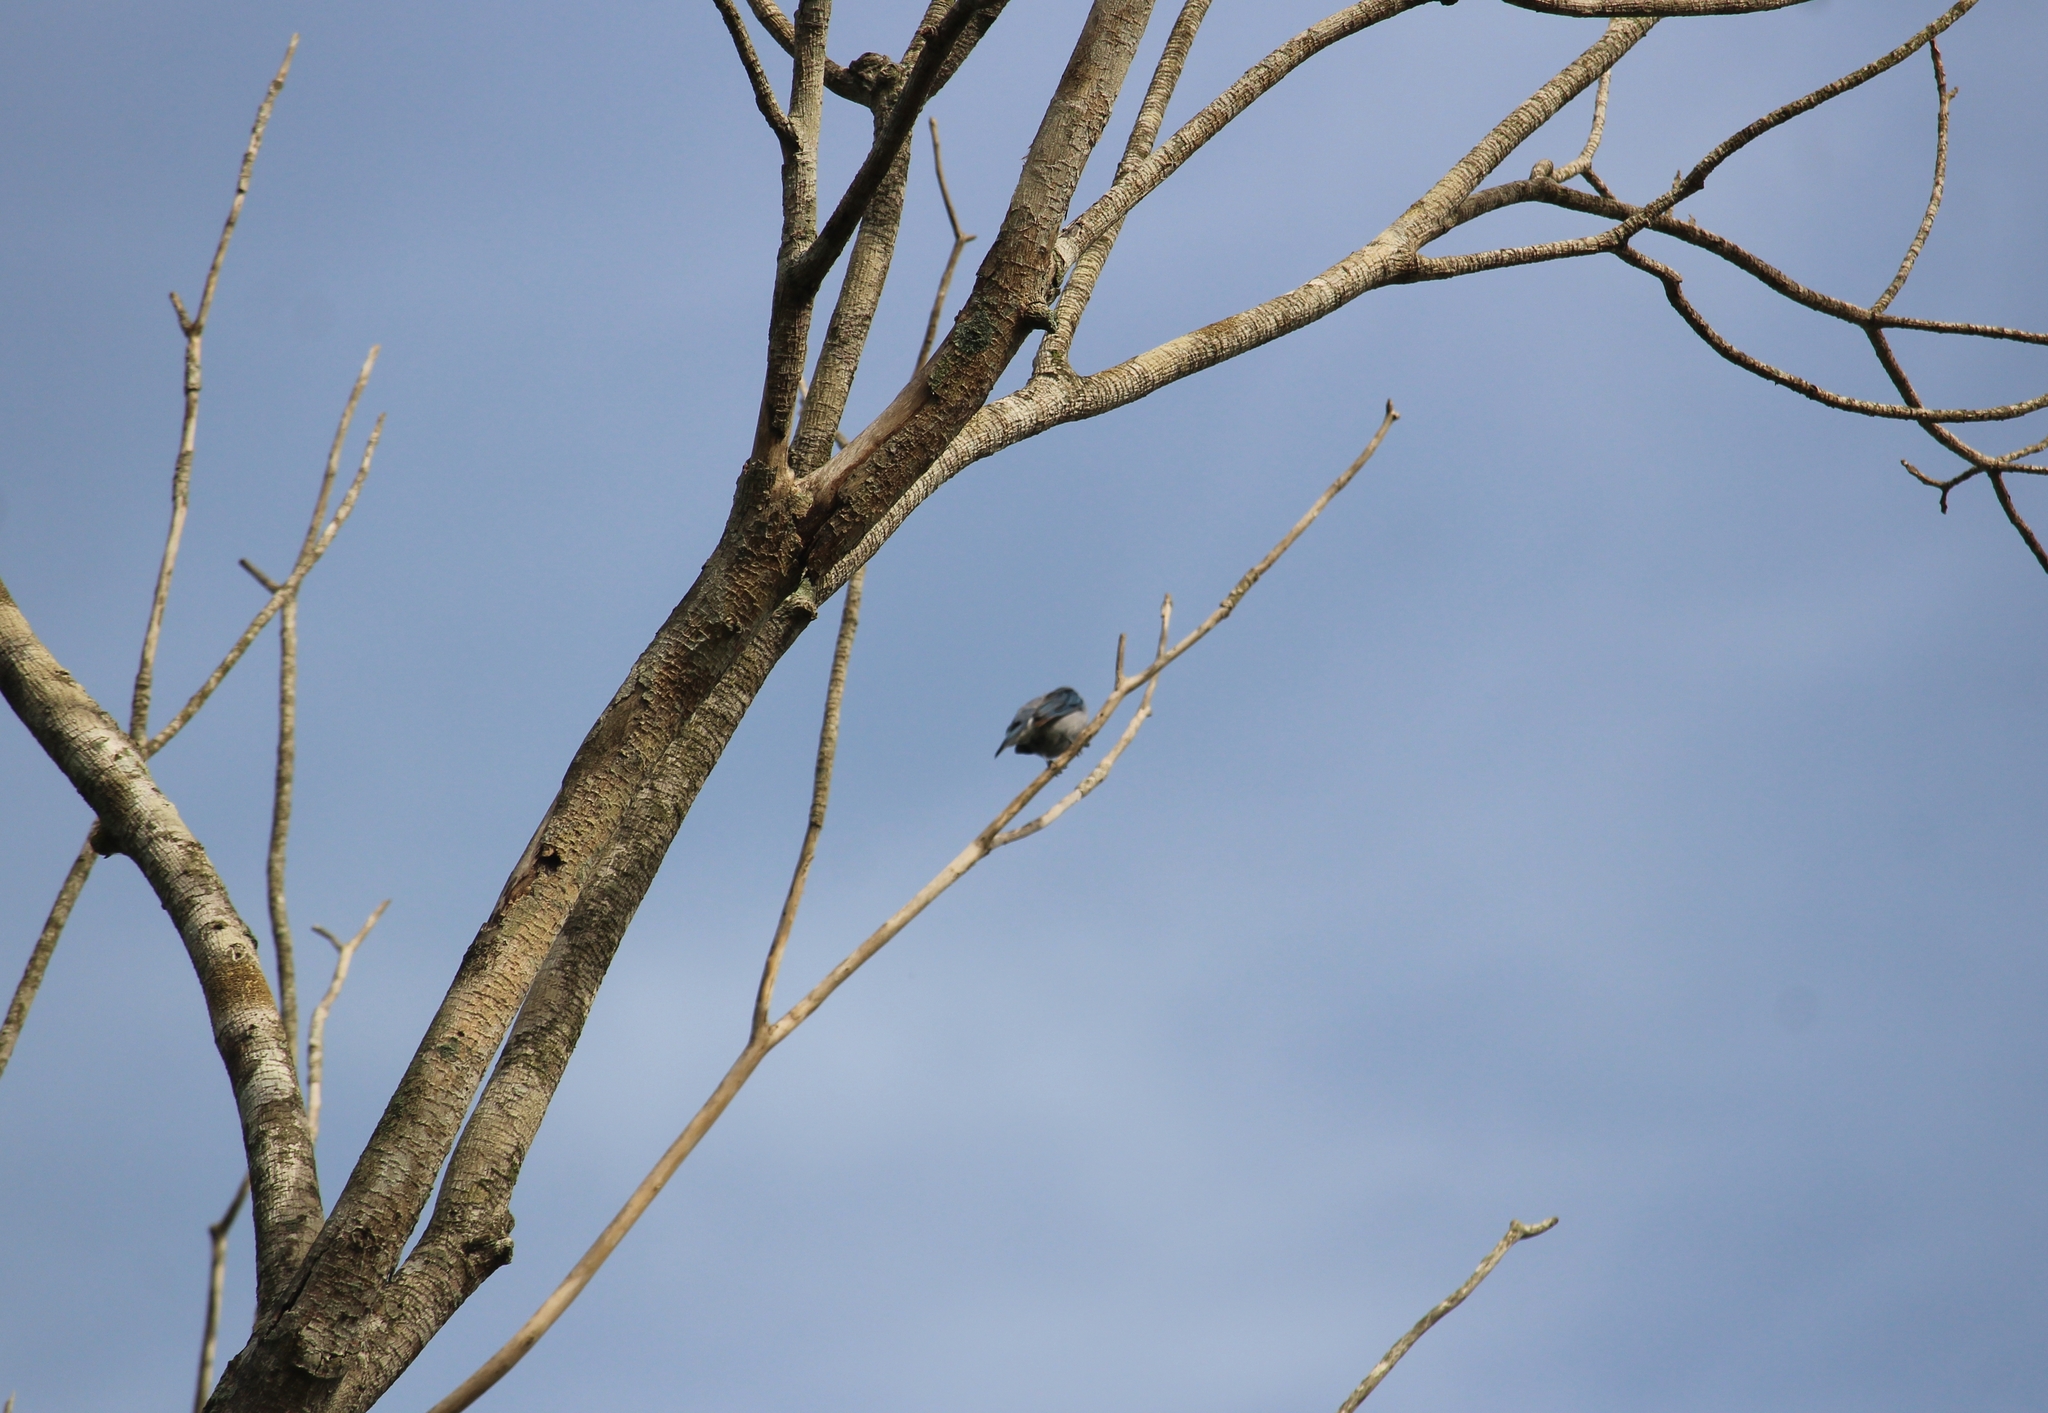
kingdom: Animalia
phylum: Chordata
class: Aves
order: Passeriformes
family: Thraupidae
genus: Thraupis
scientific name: Thraupis episcopus
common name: Blue-grey tanager
